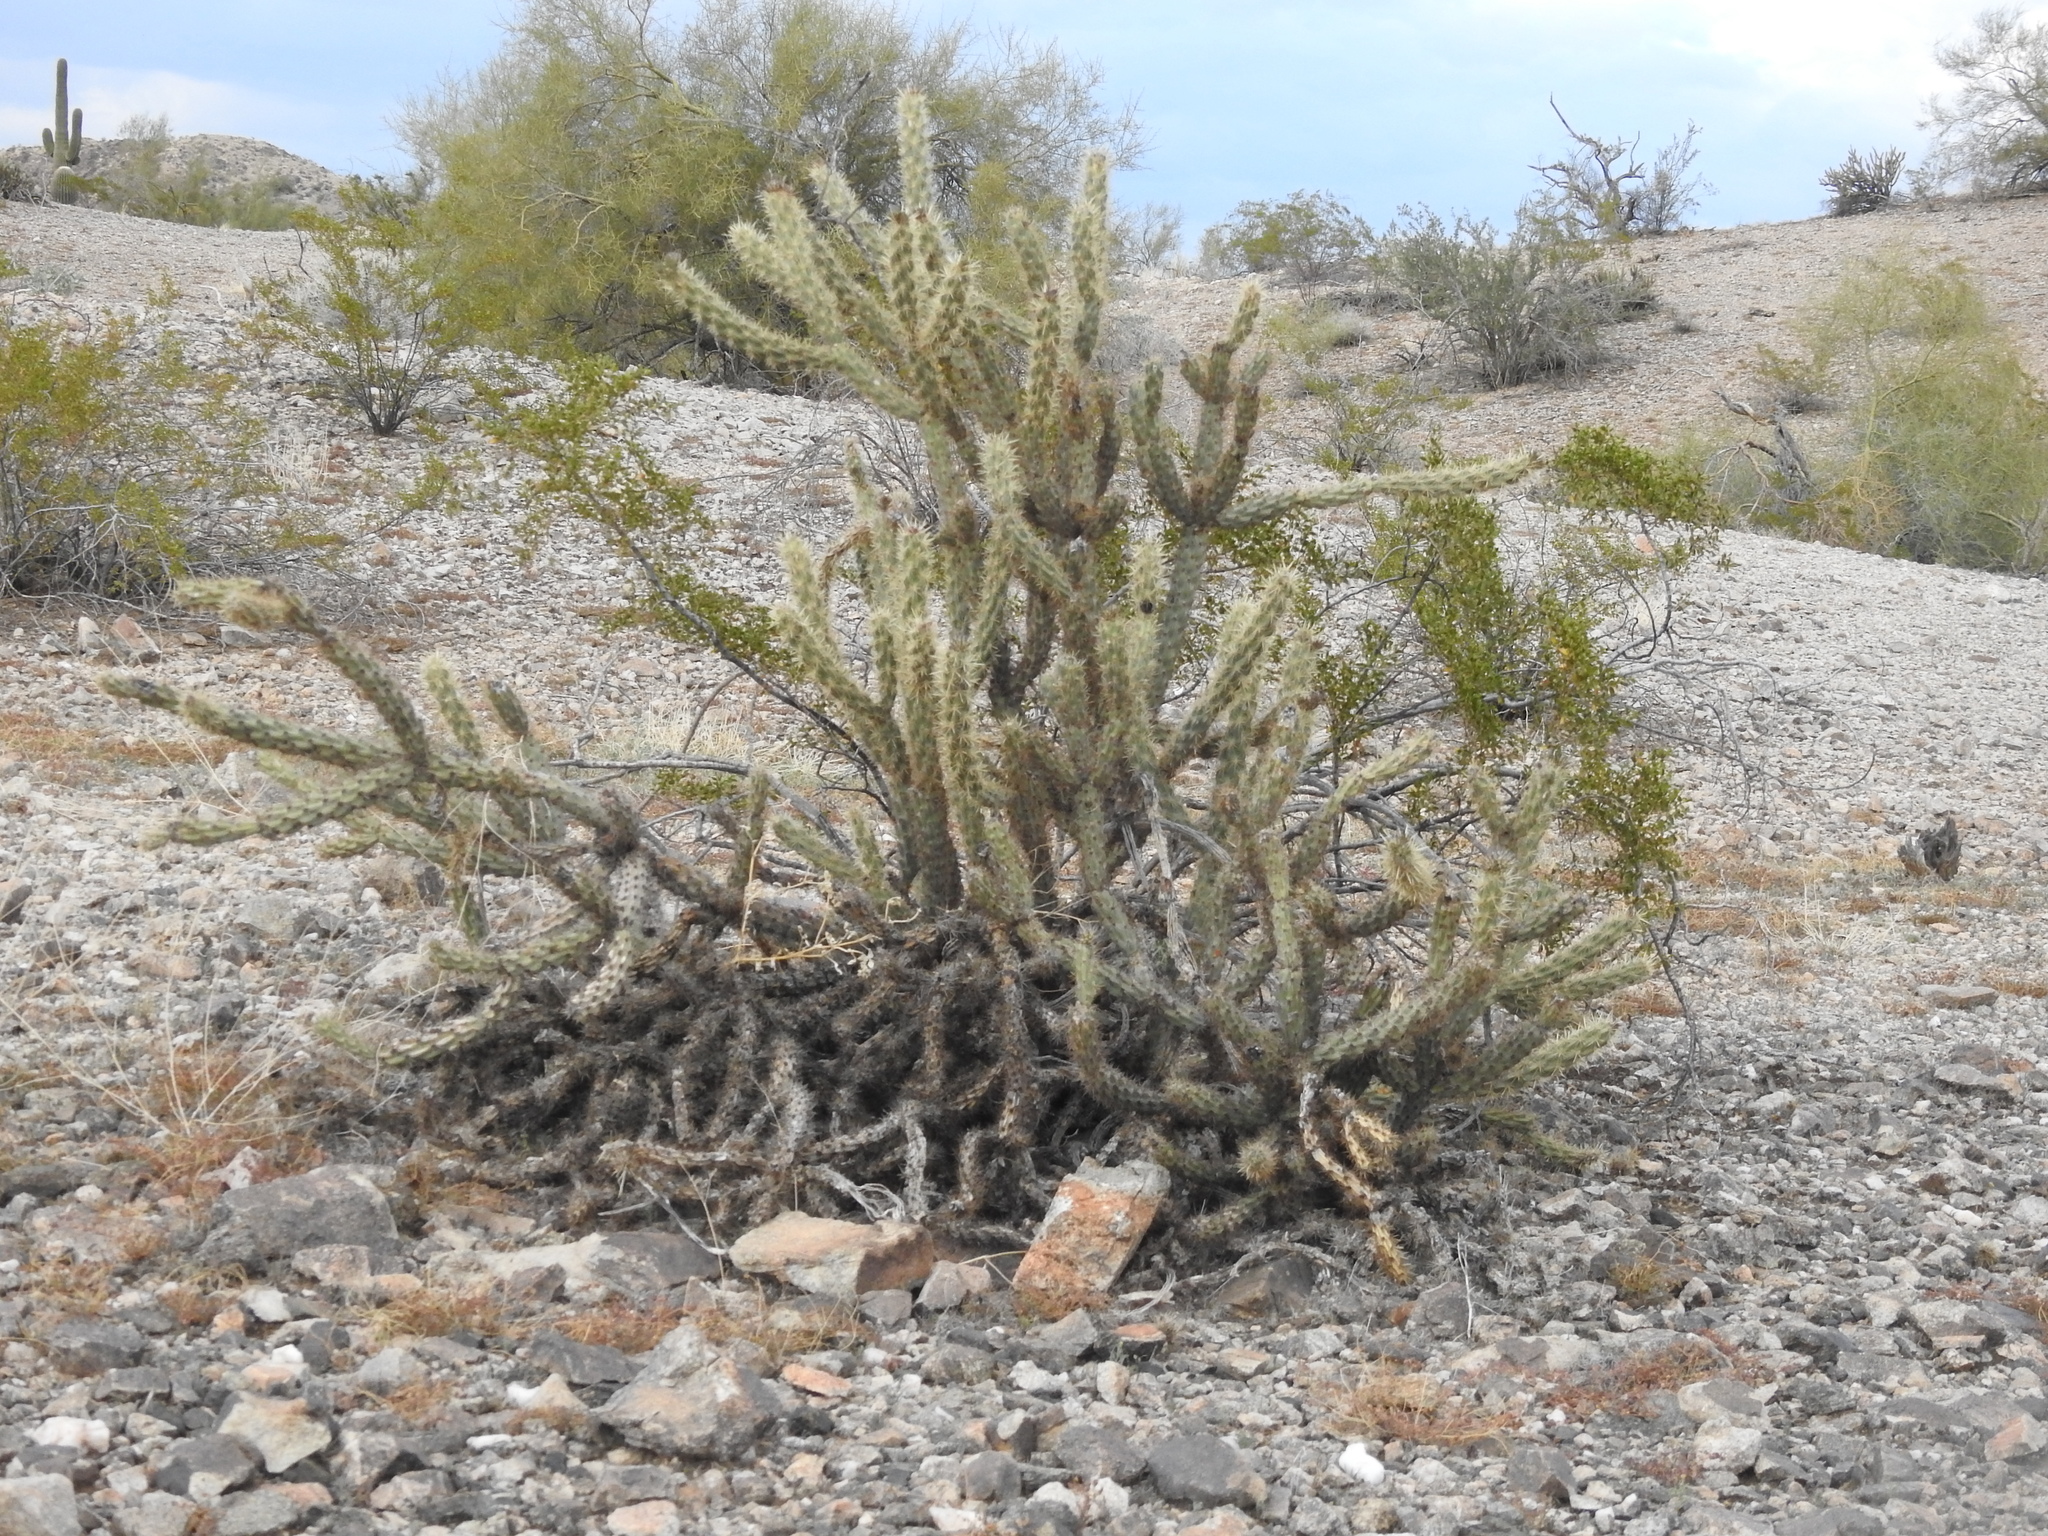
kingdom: Plantae
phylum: Tracheophyta
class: Magnoliopsida
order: Caryophyllales
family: Cactaceae
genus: Cylindropuntia
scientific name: Cylindropuntia acanthocarpa
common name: Buckhorn cholla
